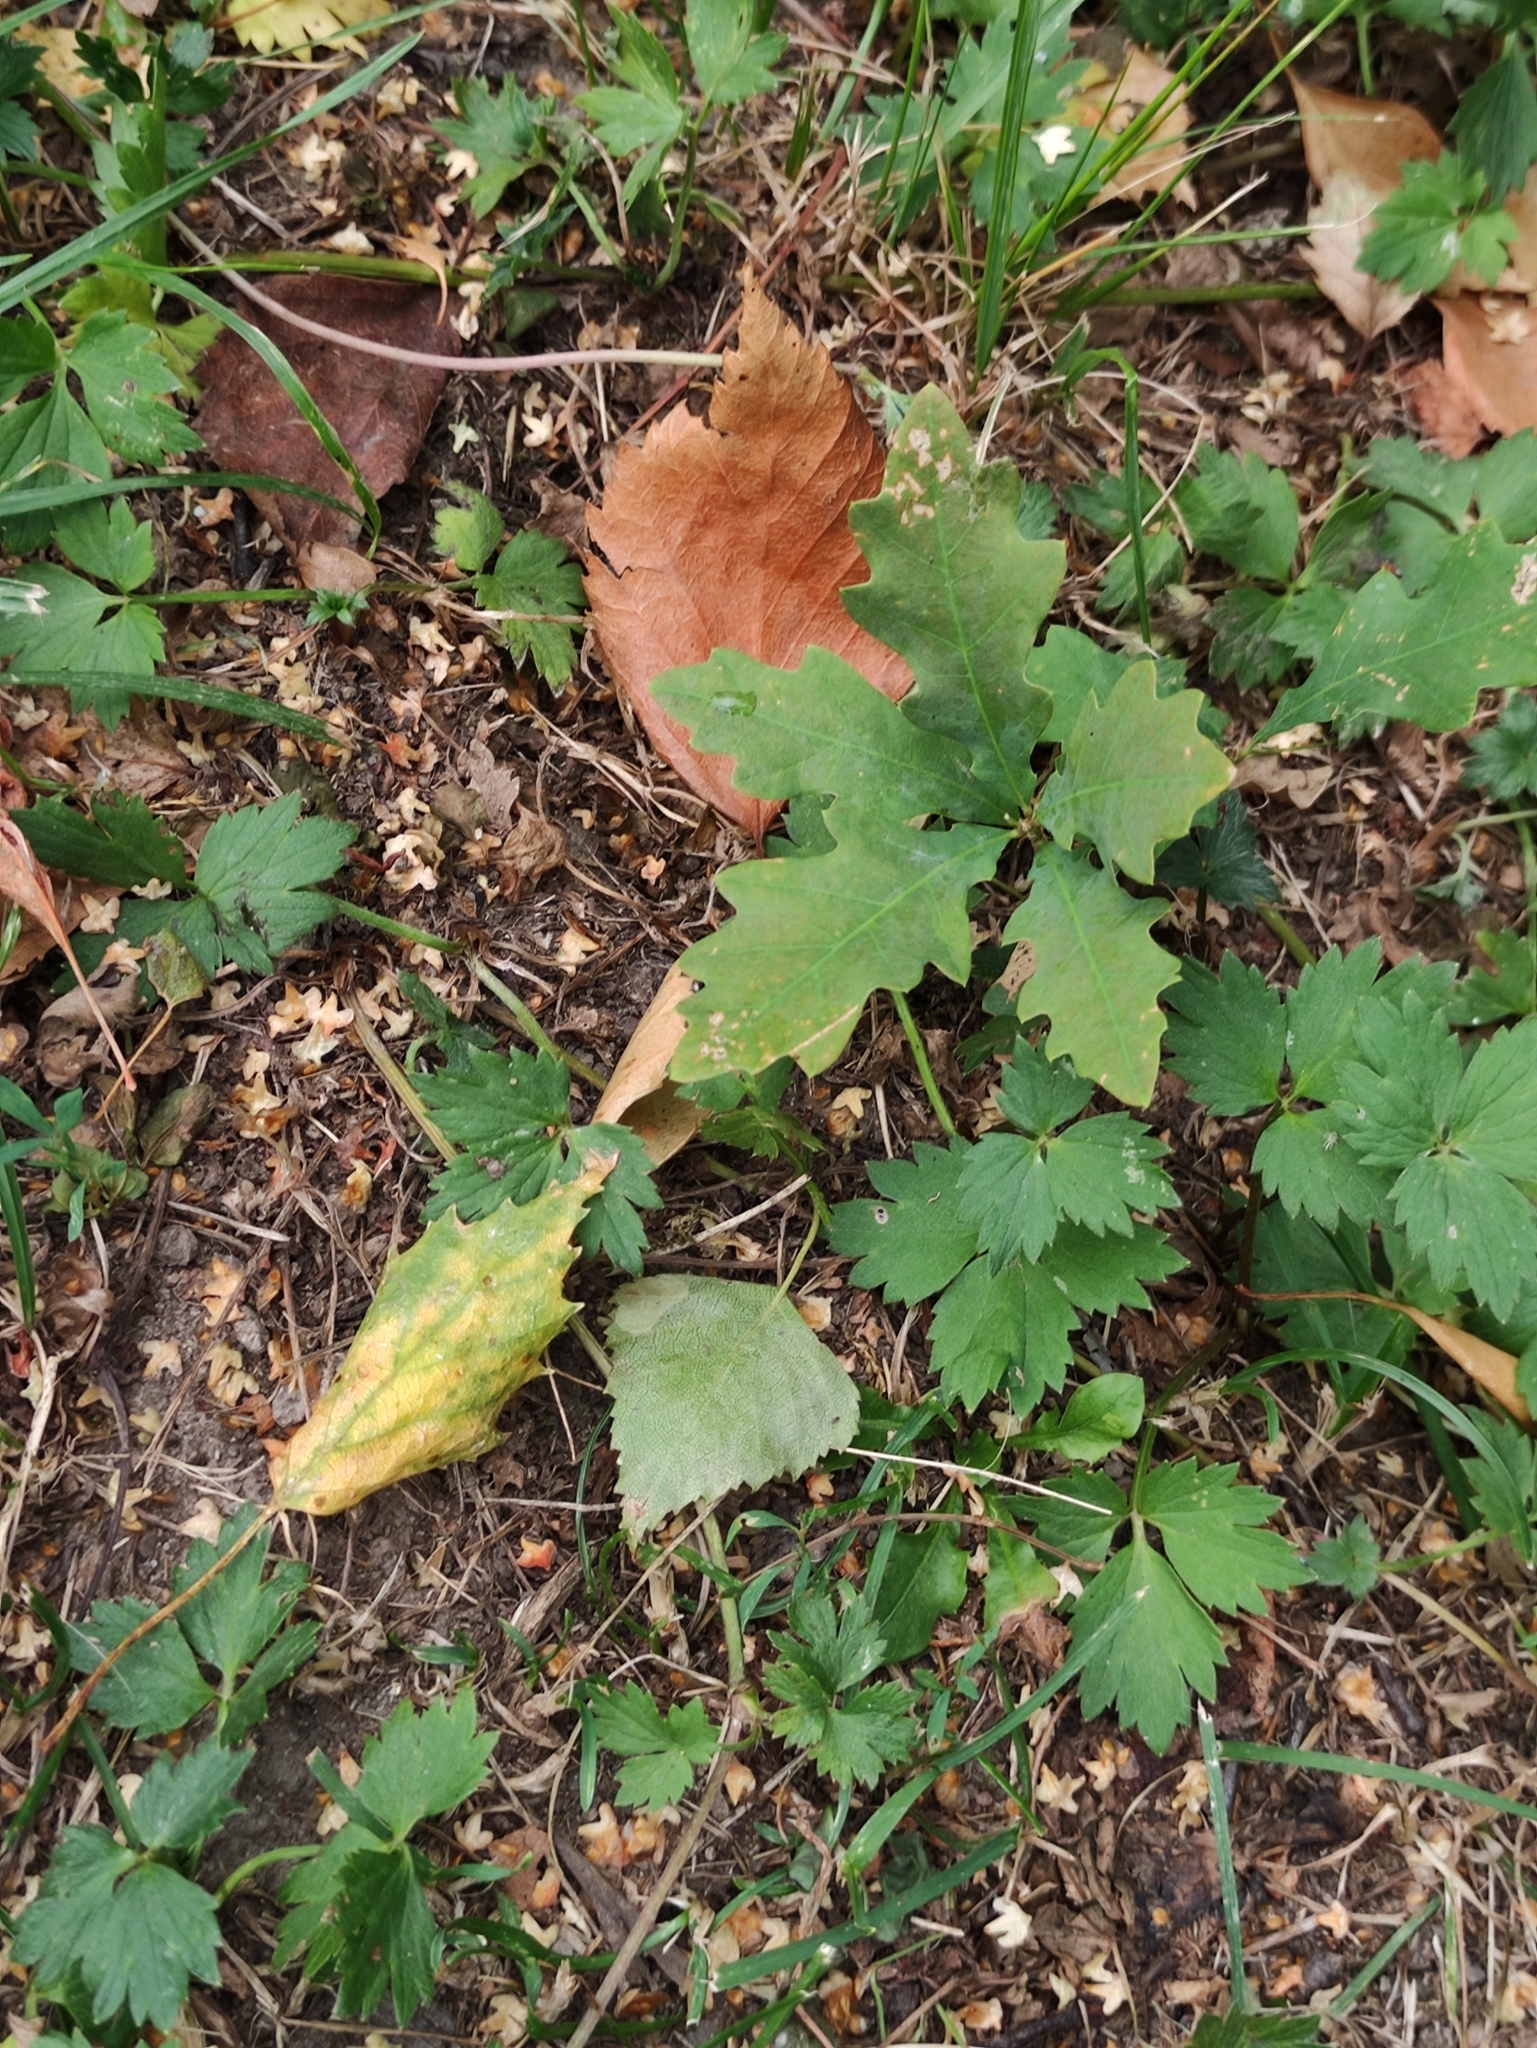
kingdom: Plantae
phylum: Tracheophyta
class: Magnoliopsida
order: Fagales
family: Fagaceae
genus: Quercus
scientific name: Quercus robur
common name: Pedunculate oak
